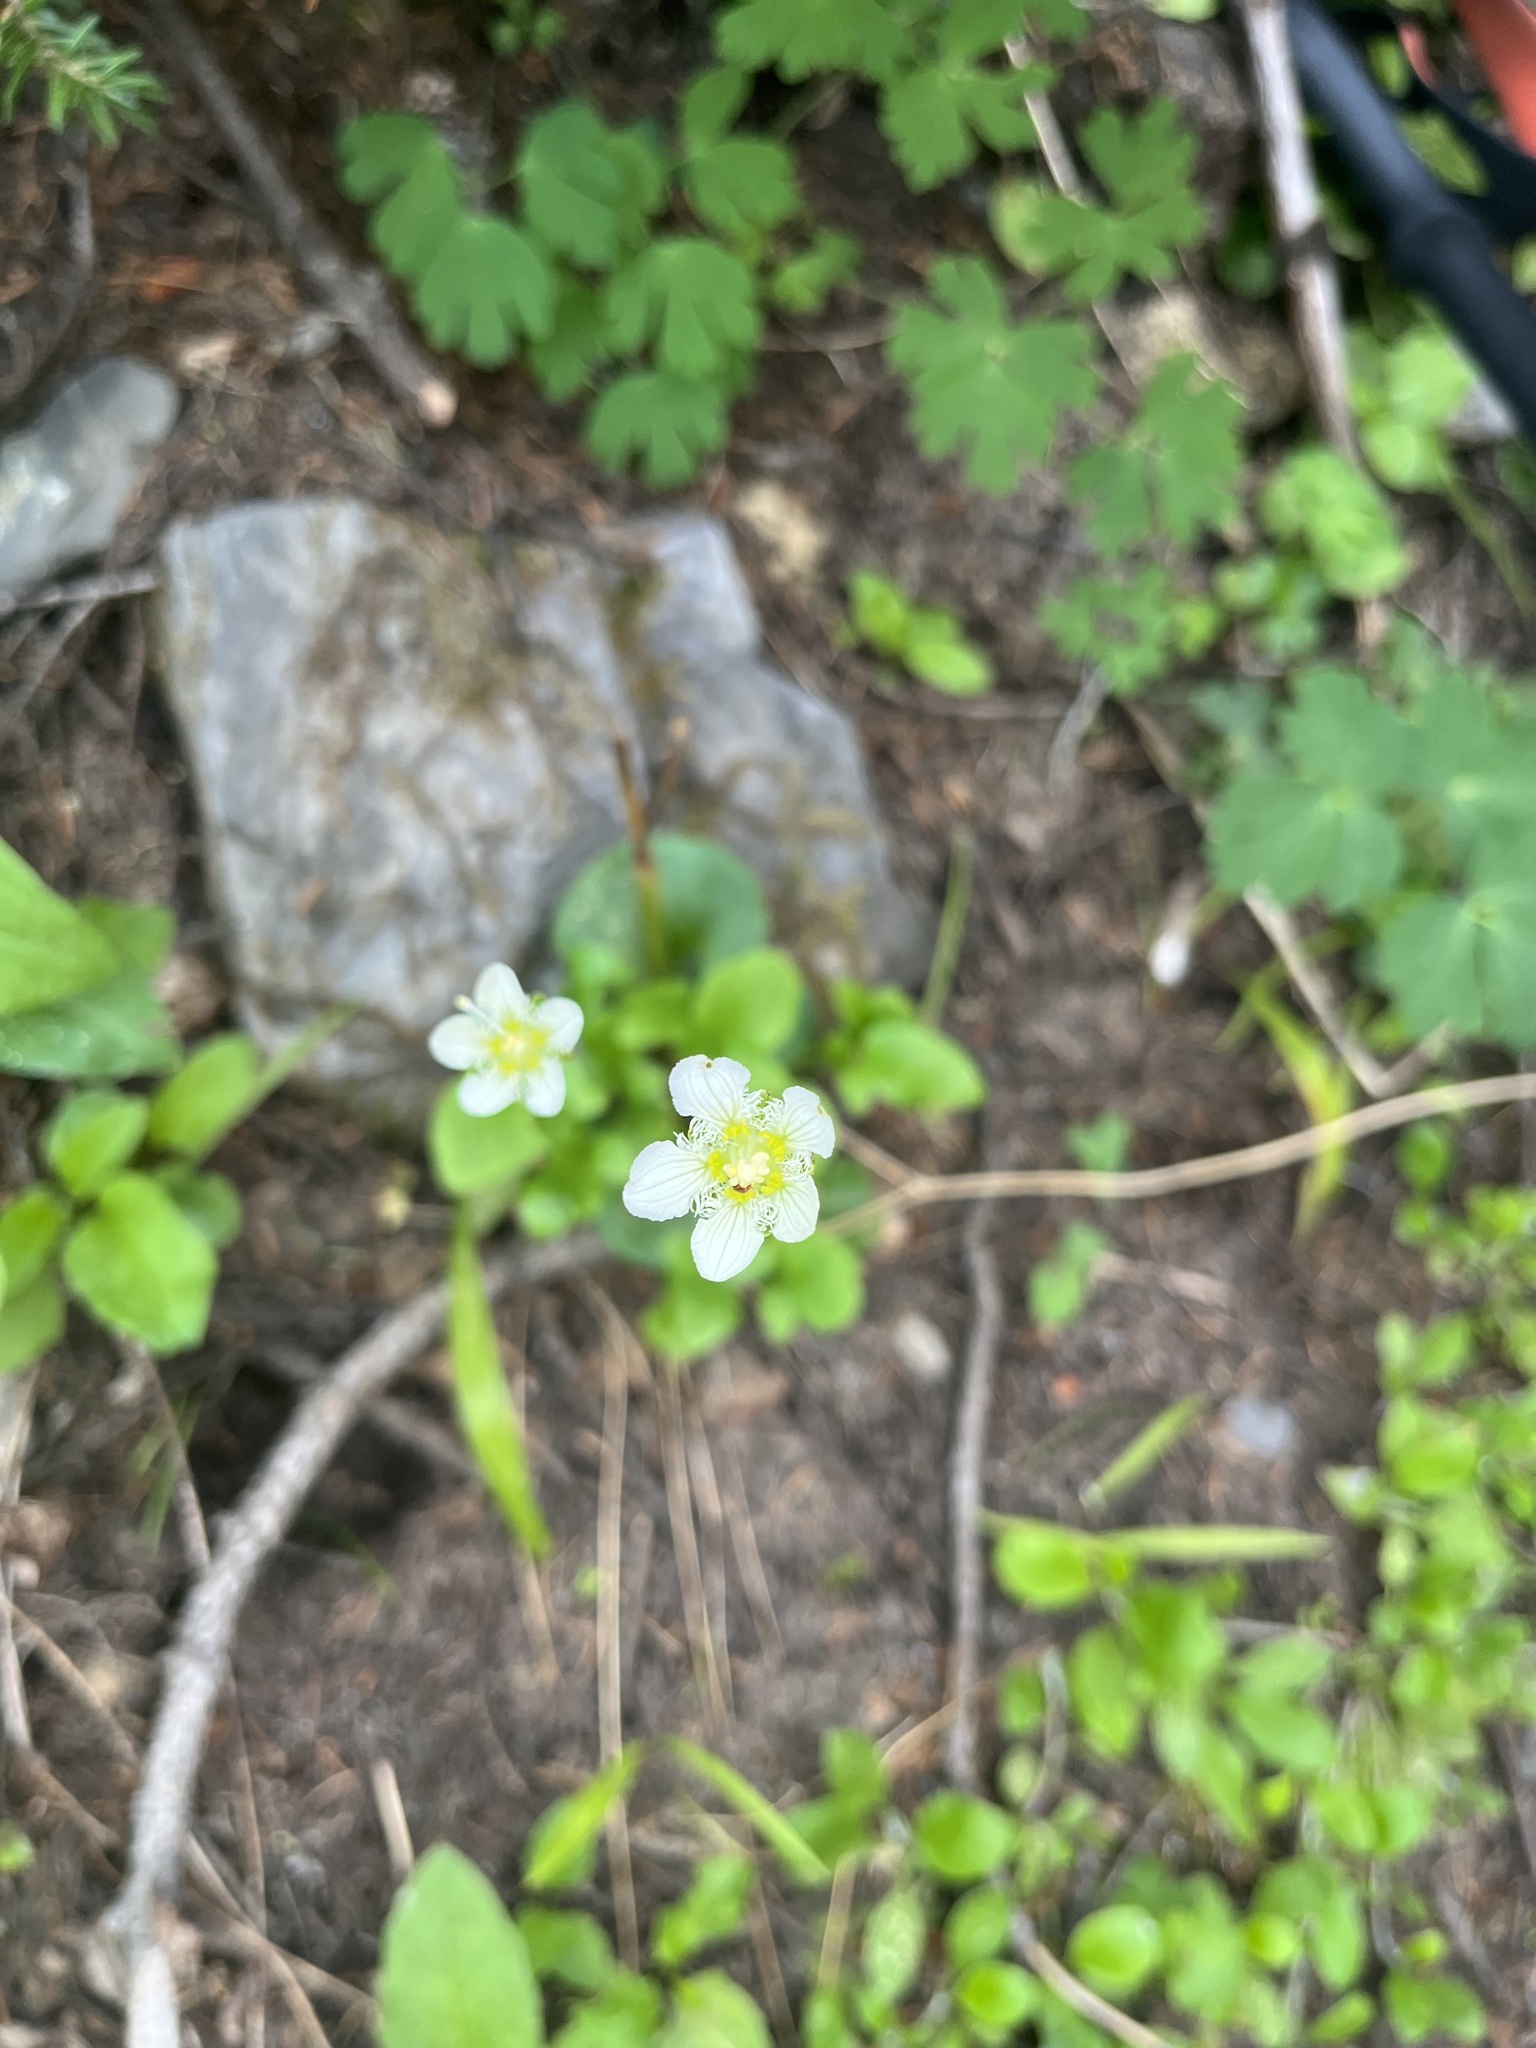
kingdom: Plantae
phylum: Tracheophyta
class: Magnoliopsida
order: Celastrales
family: Parnassiaceae
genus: Parnassia
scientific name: Parnassia fimbriata
